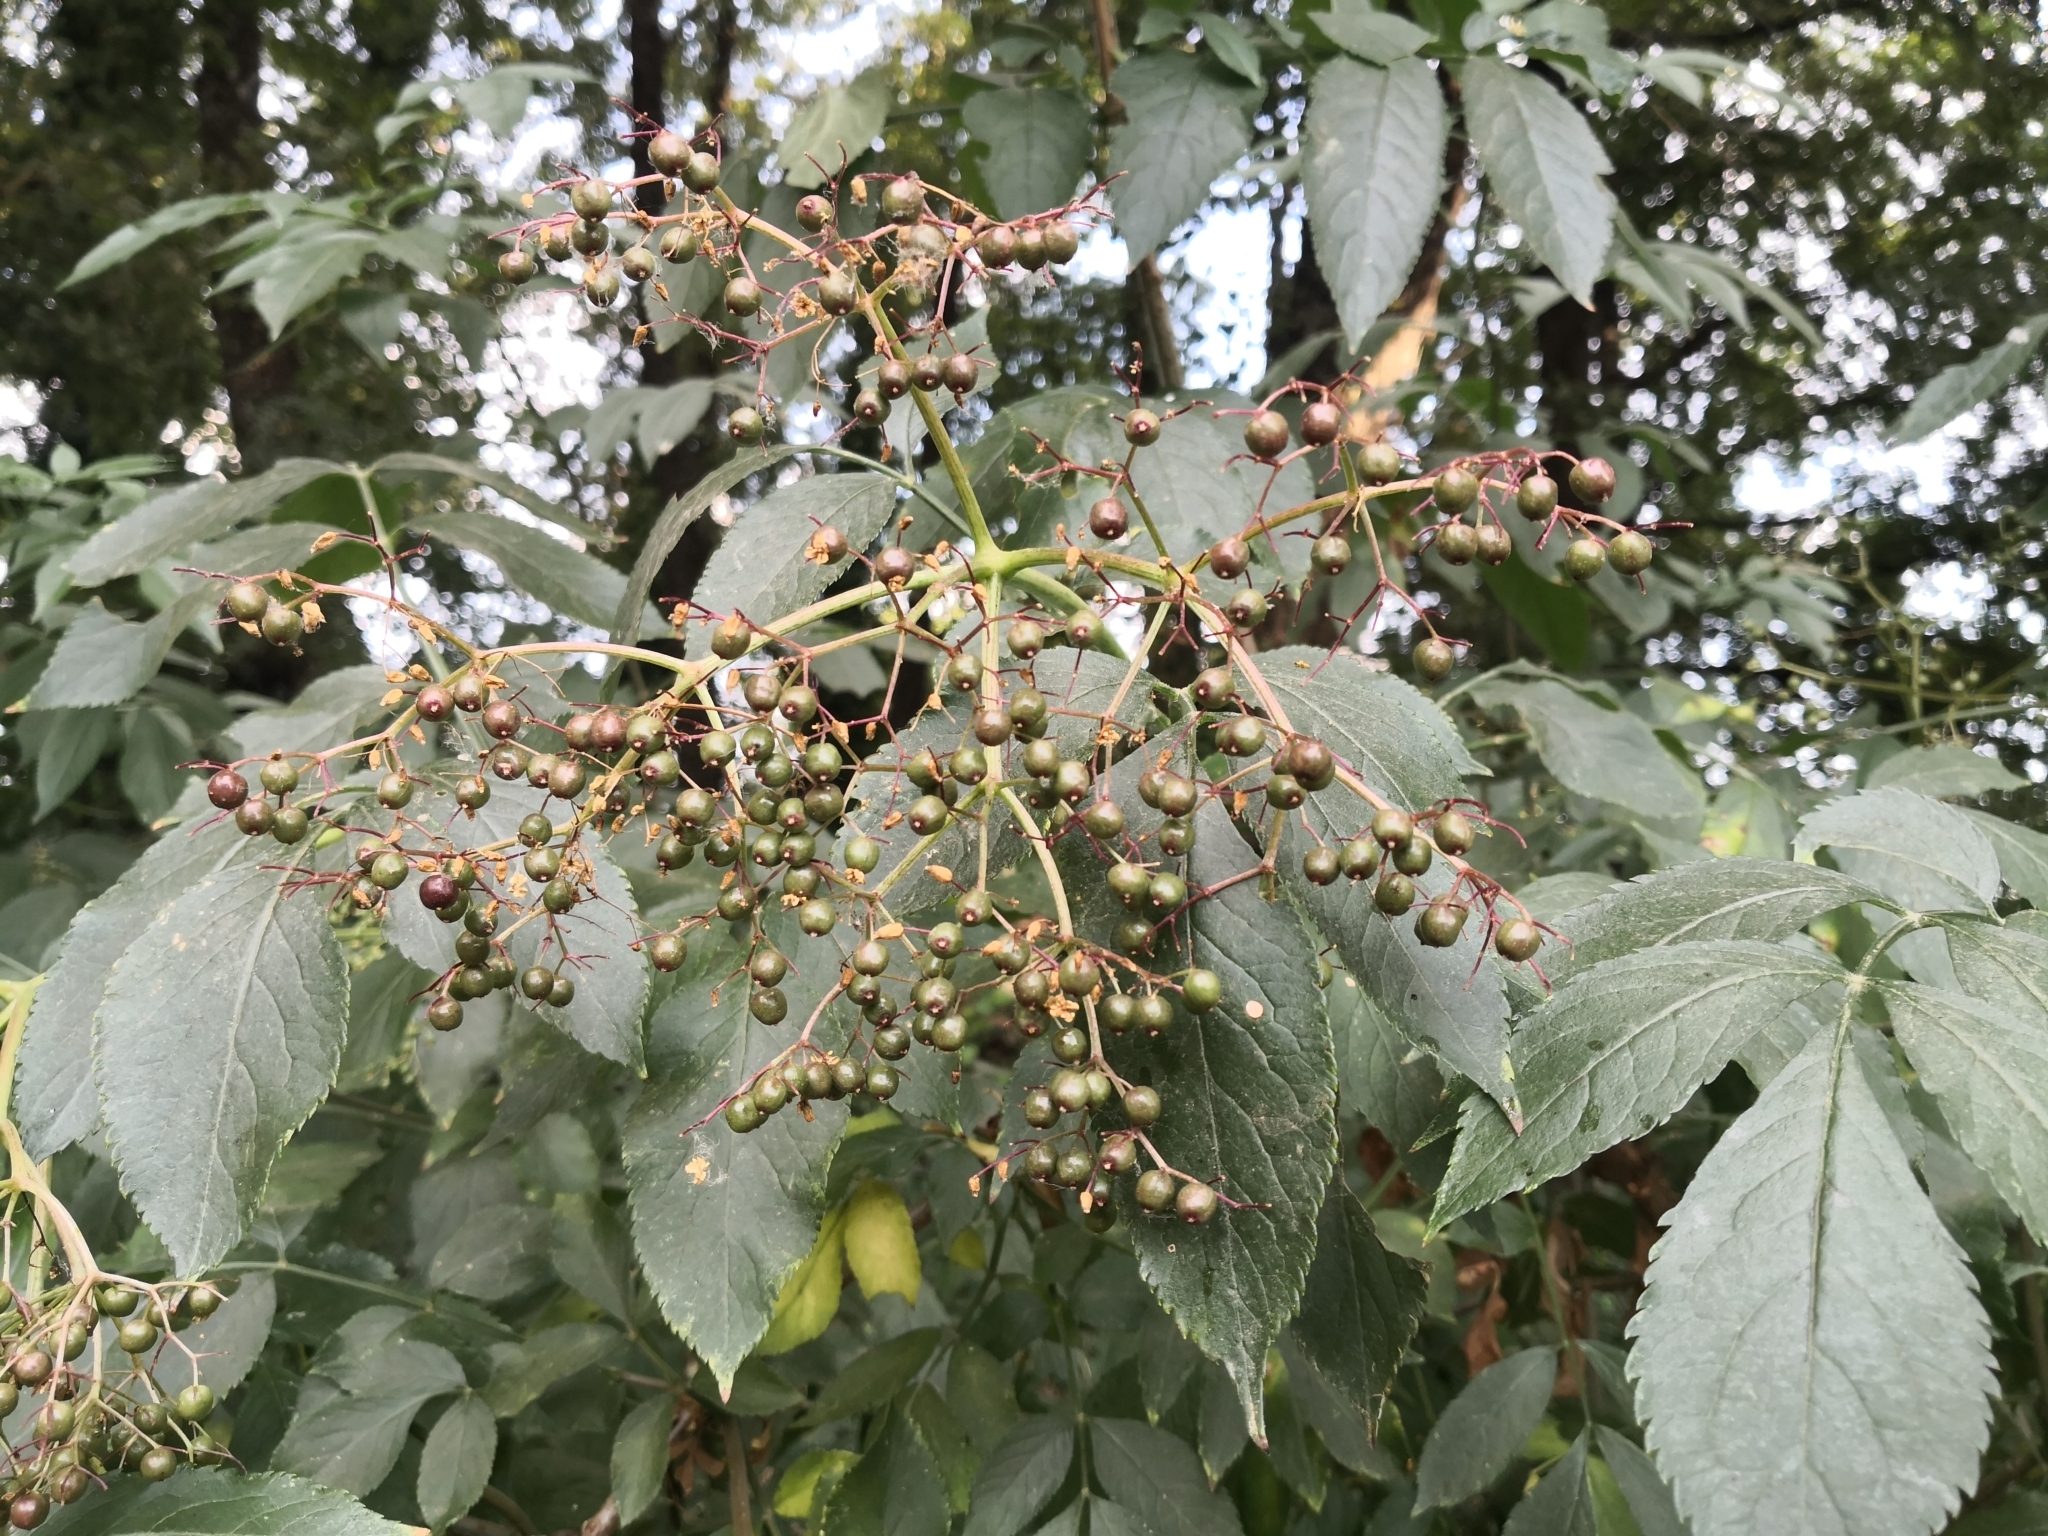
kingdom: Plantae
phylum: Tracheophyta
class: Magnoliopsida
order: Dipsacales
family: Viburnaceae
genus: Sambucus
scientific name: Sambucus nigra
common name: Elder
